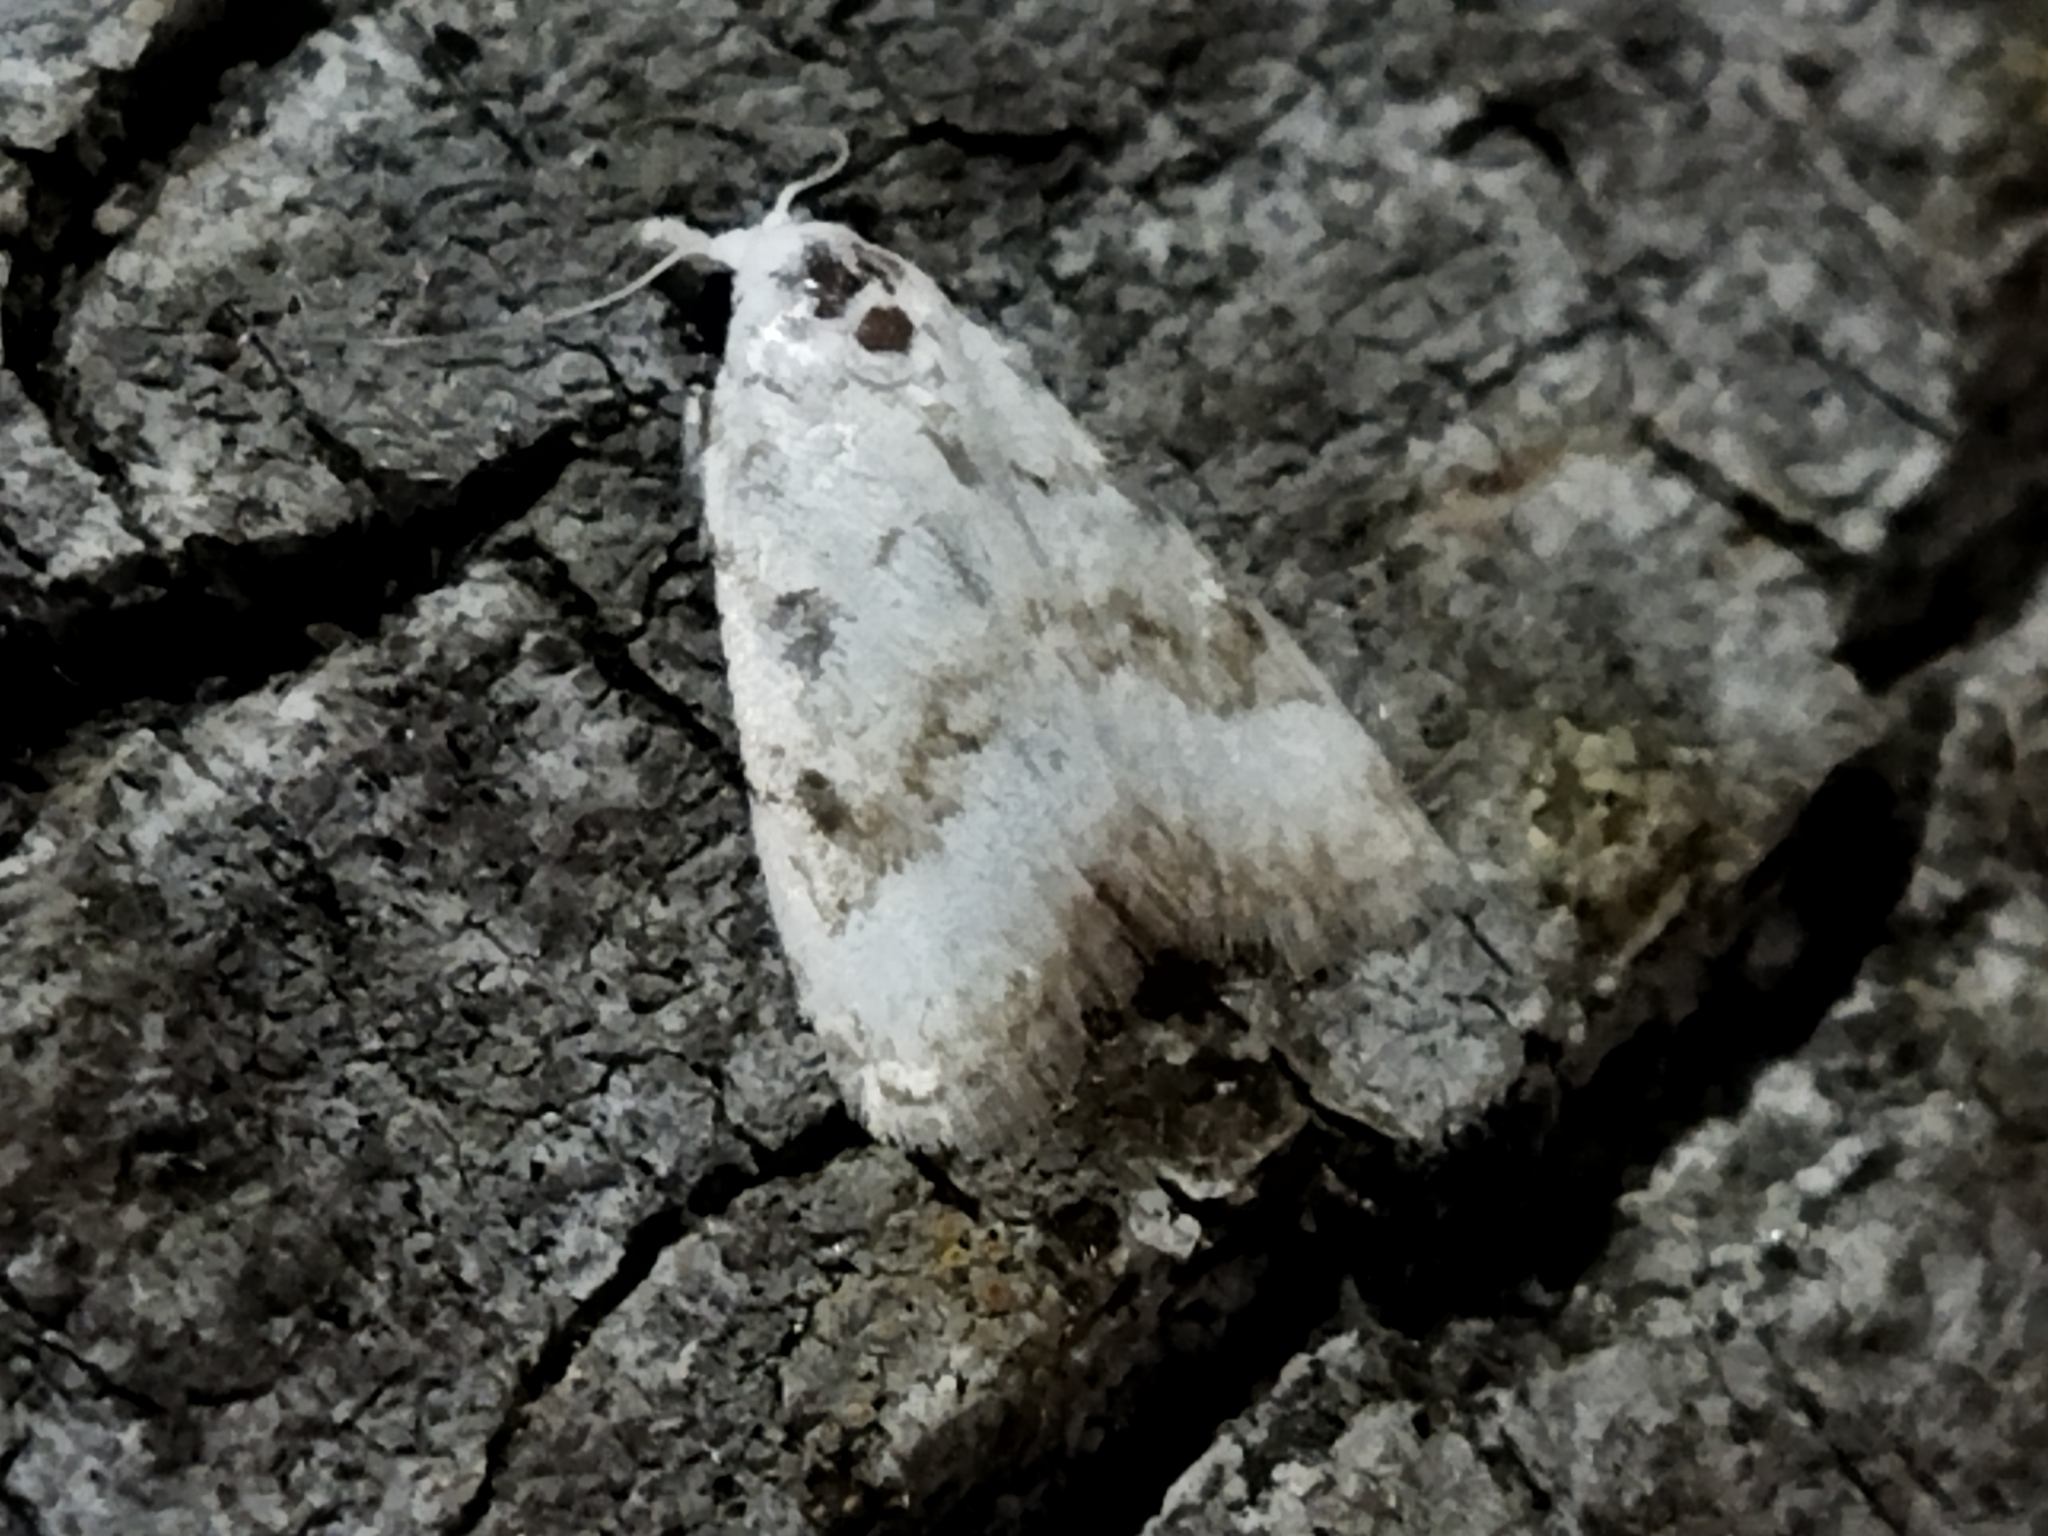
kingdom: Animalia
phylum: Arthropoda
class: Insecta
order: Lepidoptera
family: Nolidae
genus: Nola
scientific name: Nola aerugula
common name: Scarce black arches
